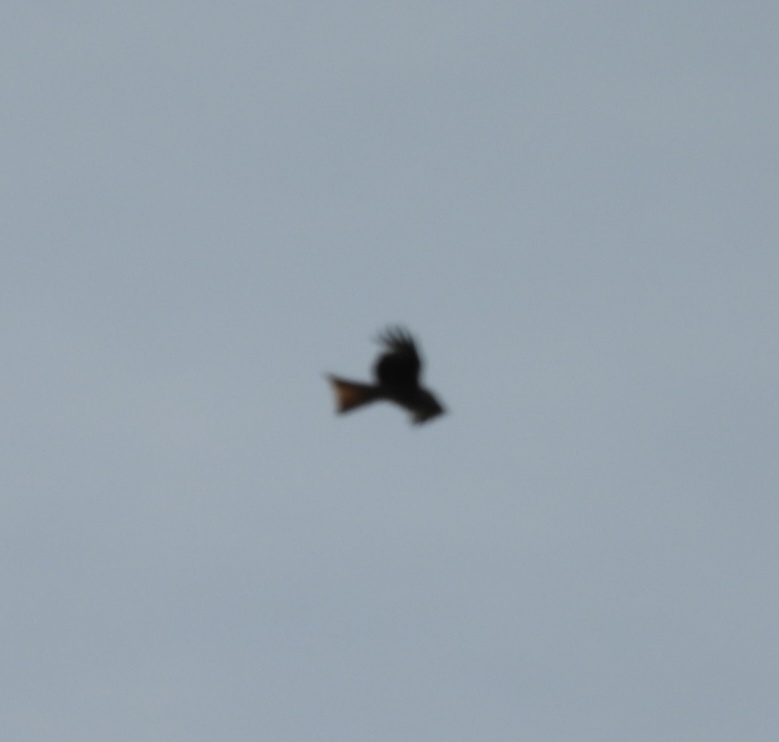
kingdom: Animalia
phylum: Chordata
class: Aves
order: Accipitriformes
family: Accipitridae
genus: Milvus
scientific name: Milvus milvus
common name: Red kite
